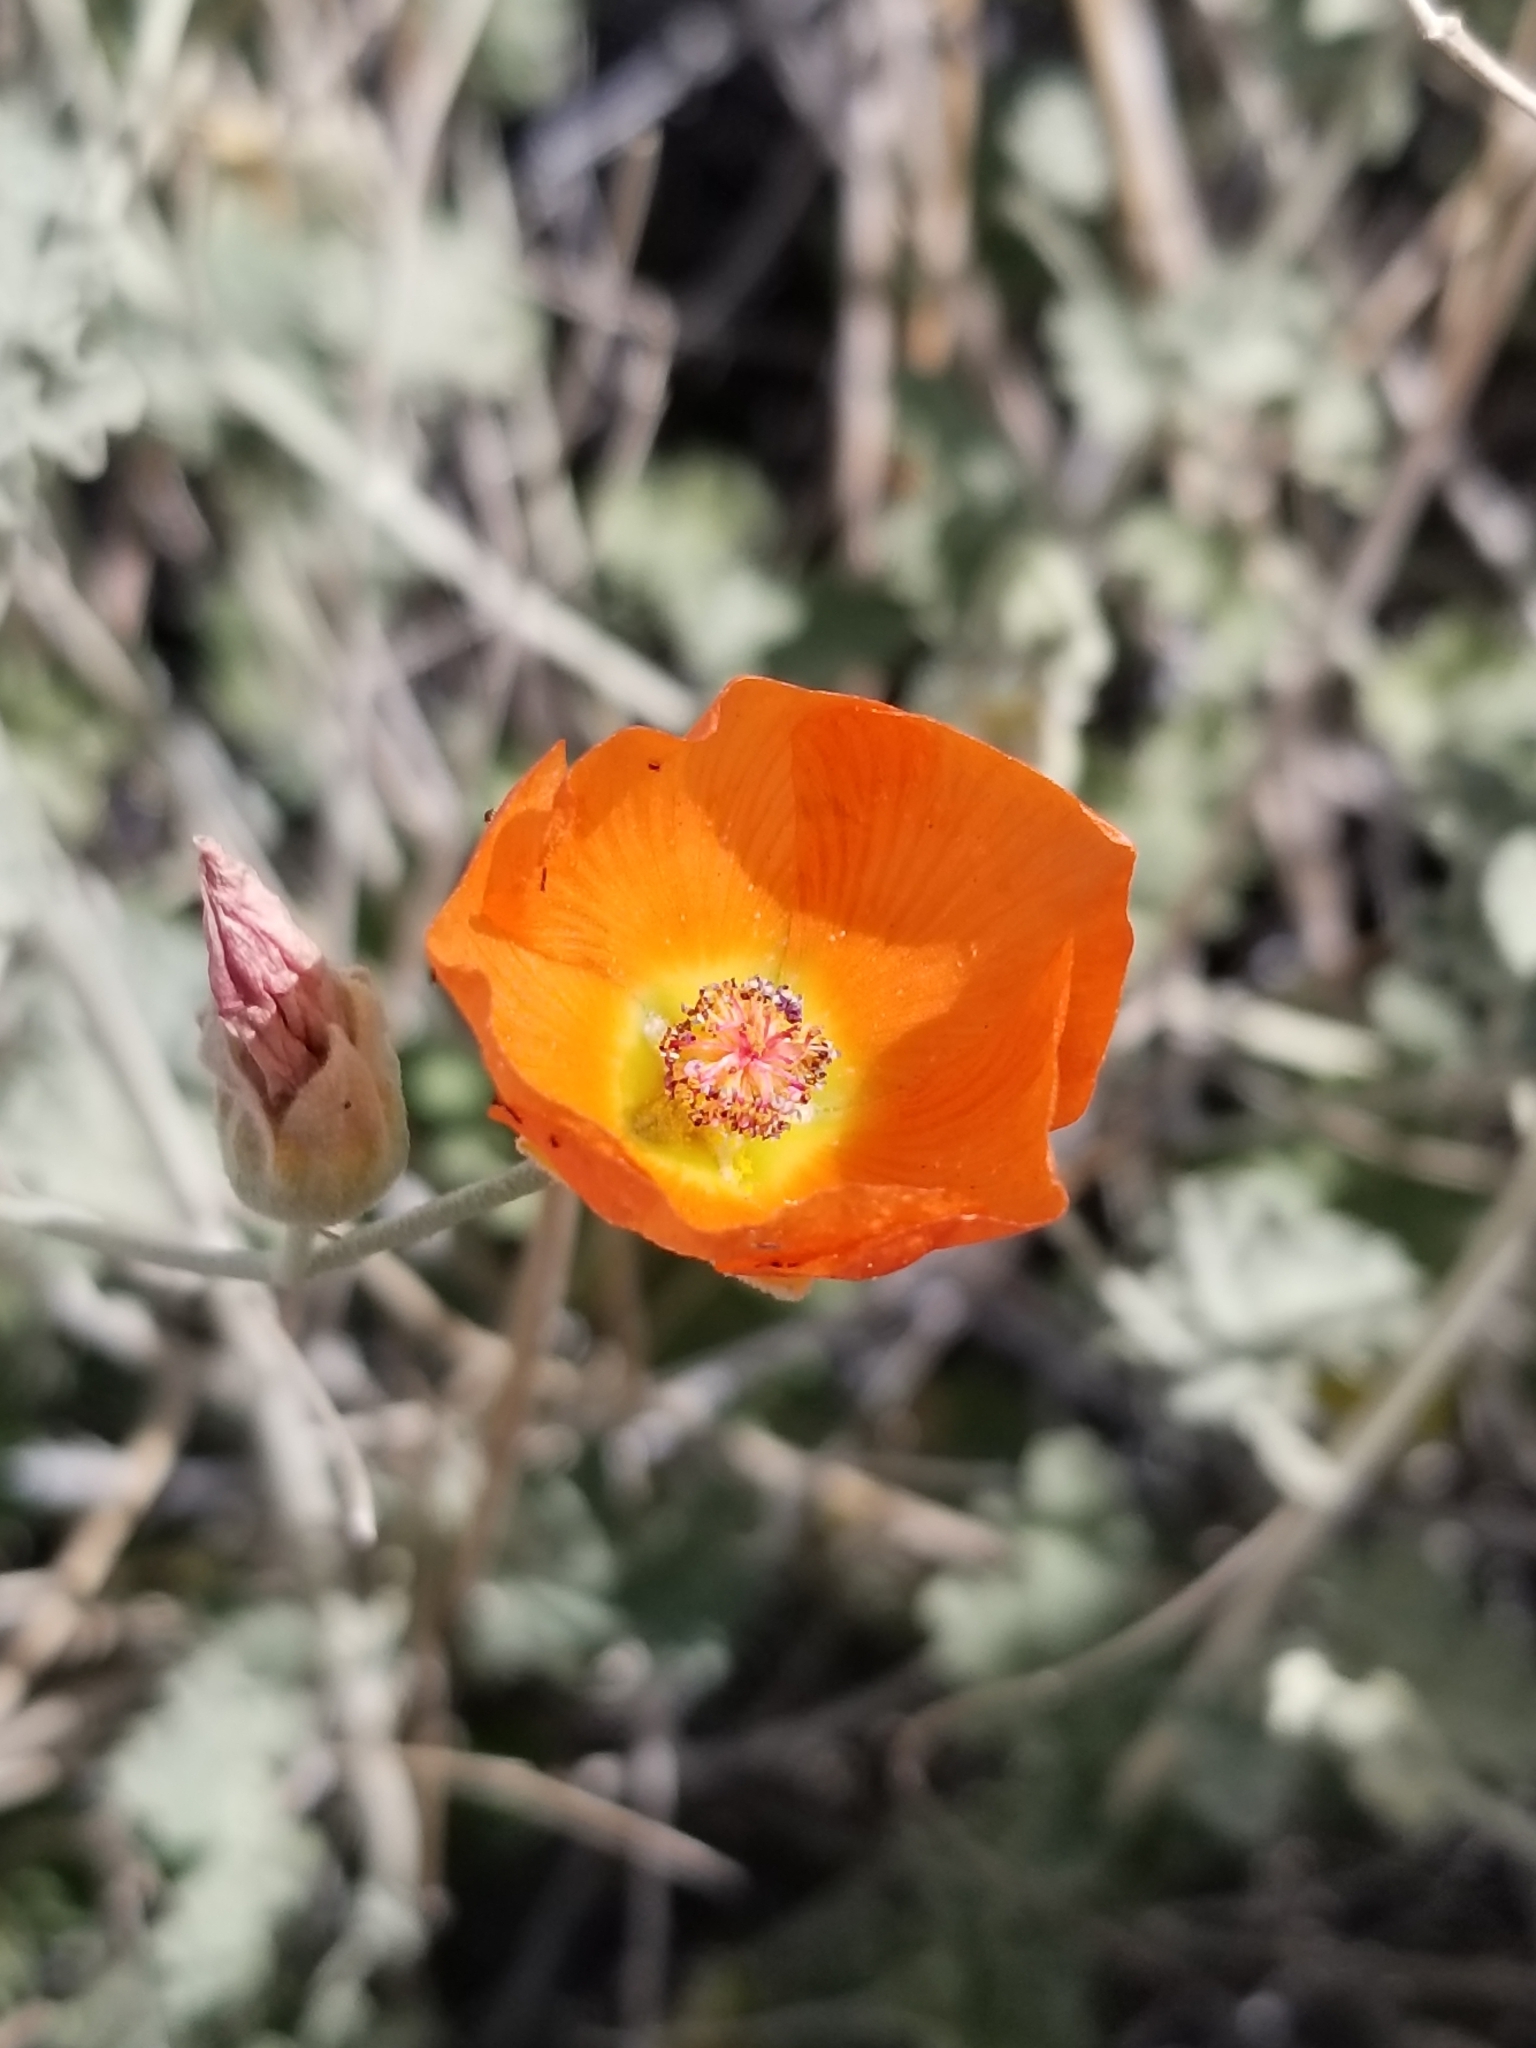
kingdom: Plantae
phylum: Tracheophyta
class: Magnoliopsida
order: Malvales
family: Malvaceae
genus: Sphaeralcea
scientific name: Sphaeralcea ambigua
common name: Apricot globe-mallow
